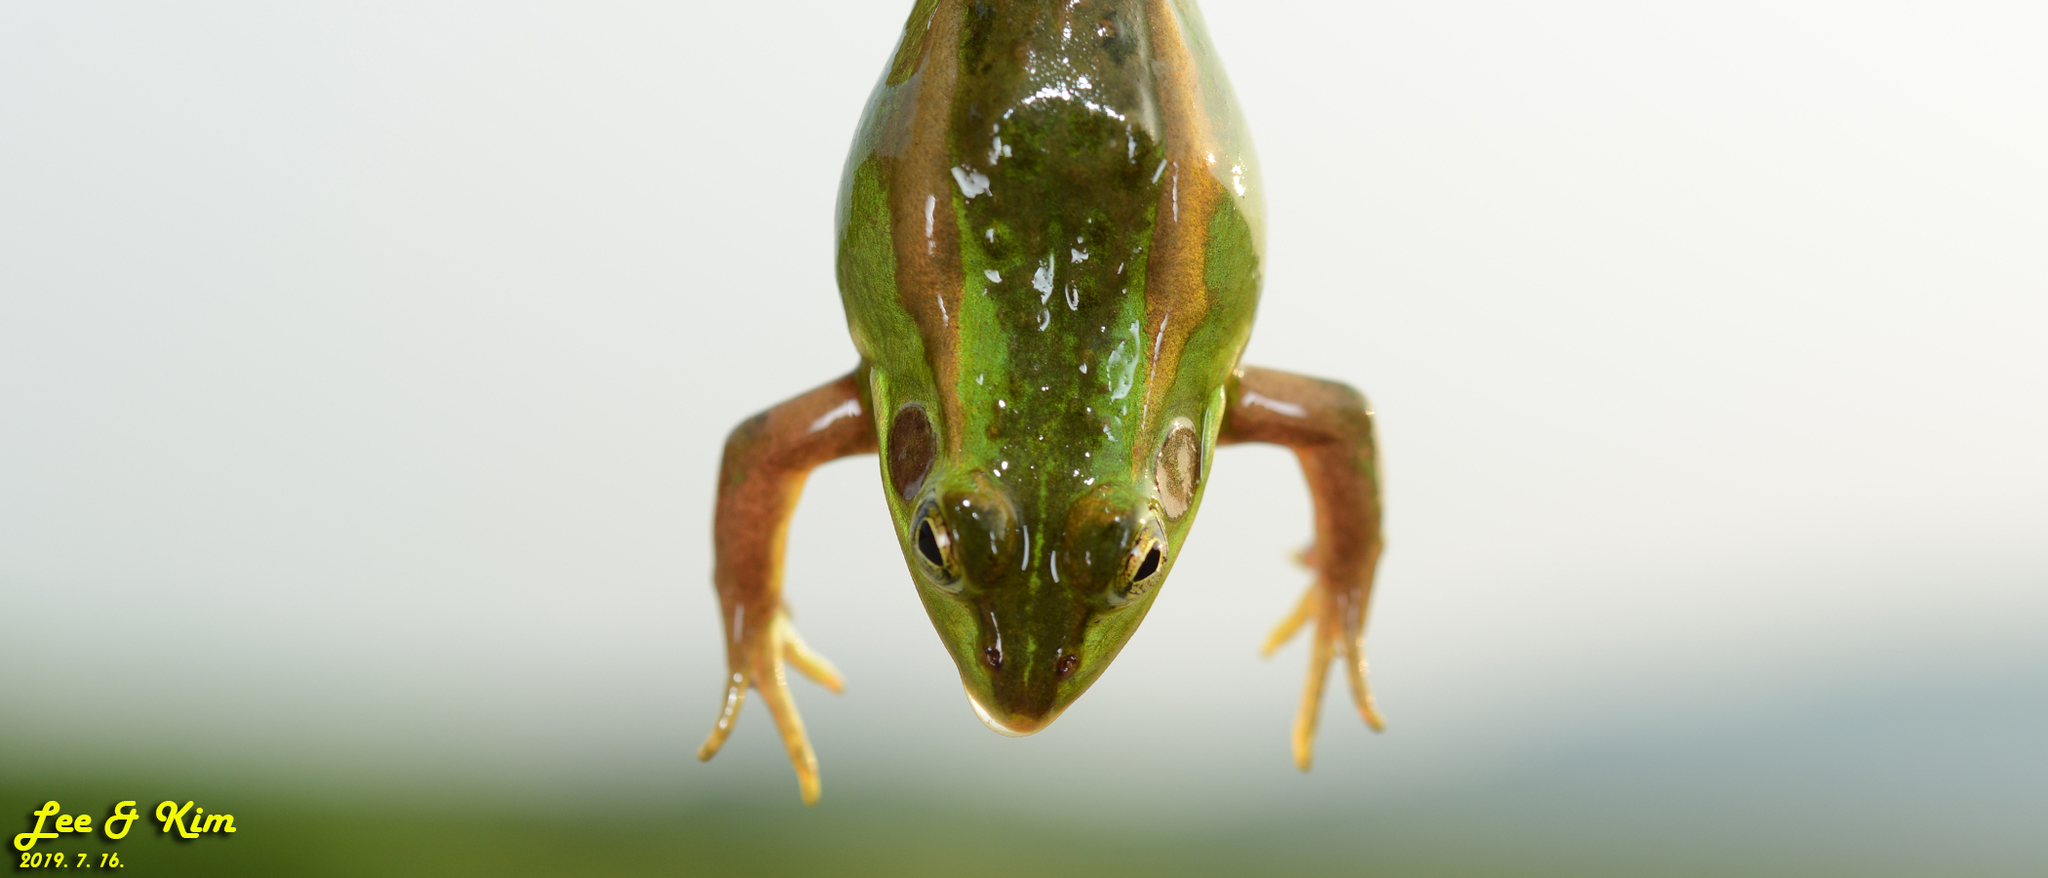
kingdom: Animalia
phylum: Chordata
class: Amphibia
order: Anura
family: Ranidae
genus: Pelophylax
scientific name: Pelophylax chosenicus
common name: Gold-spotted pond frog
